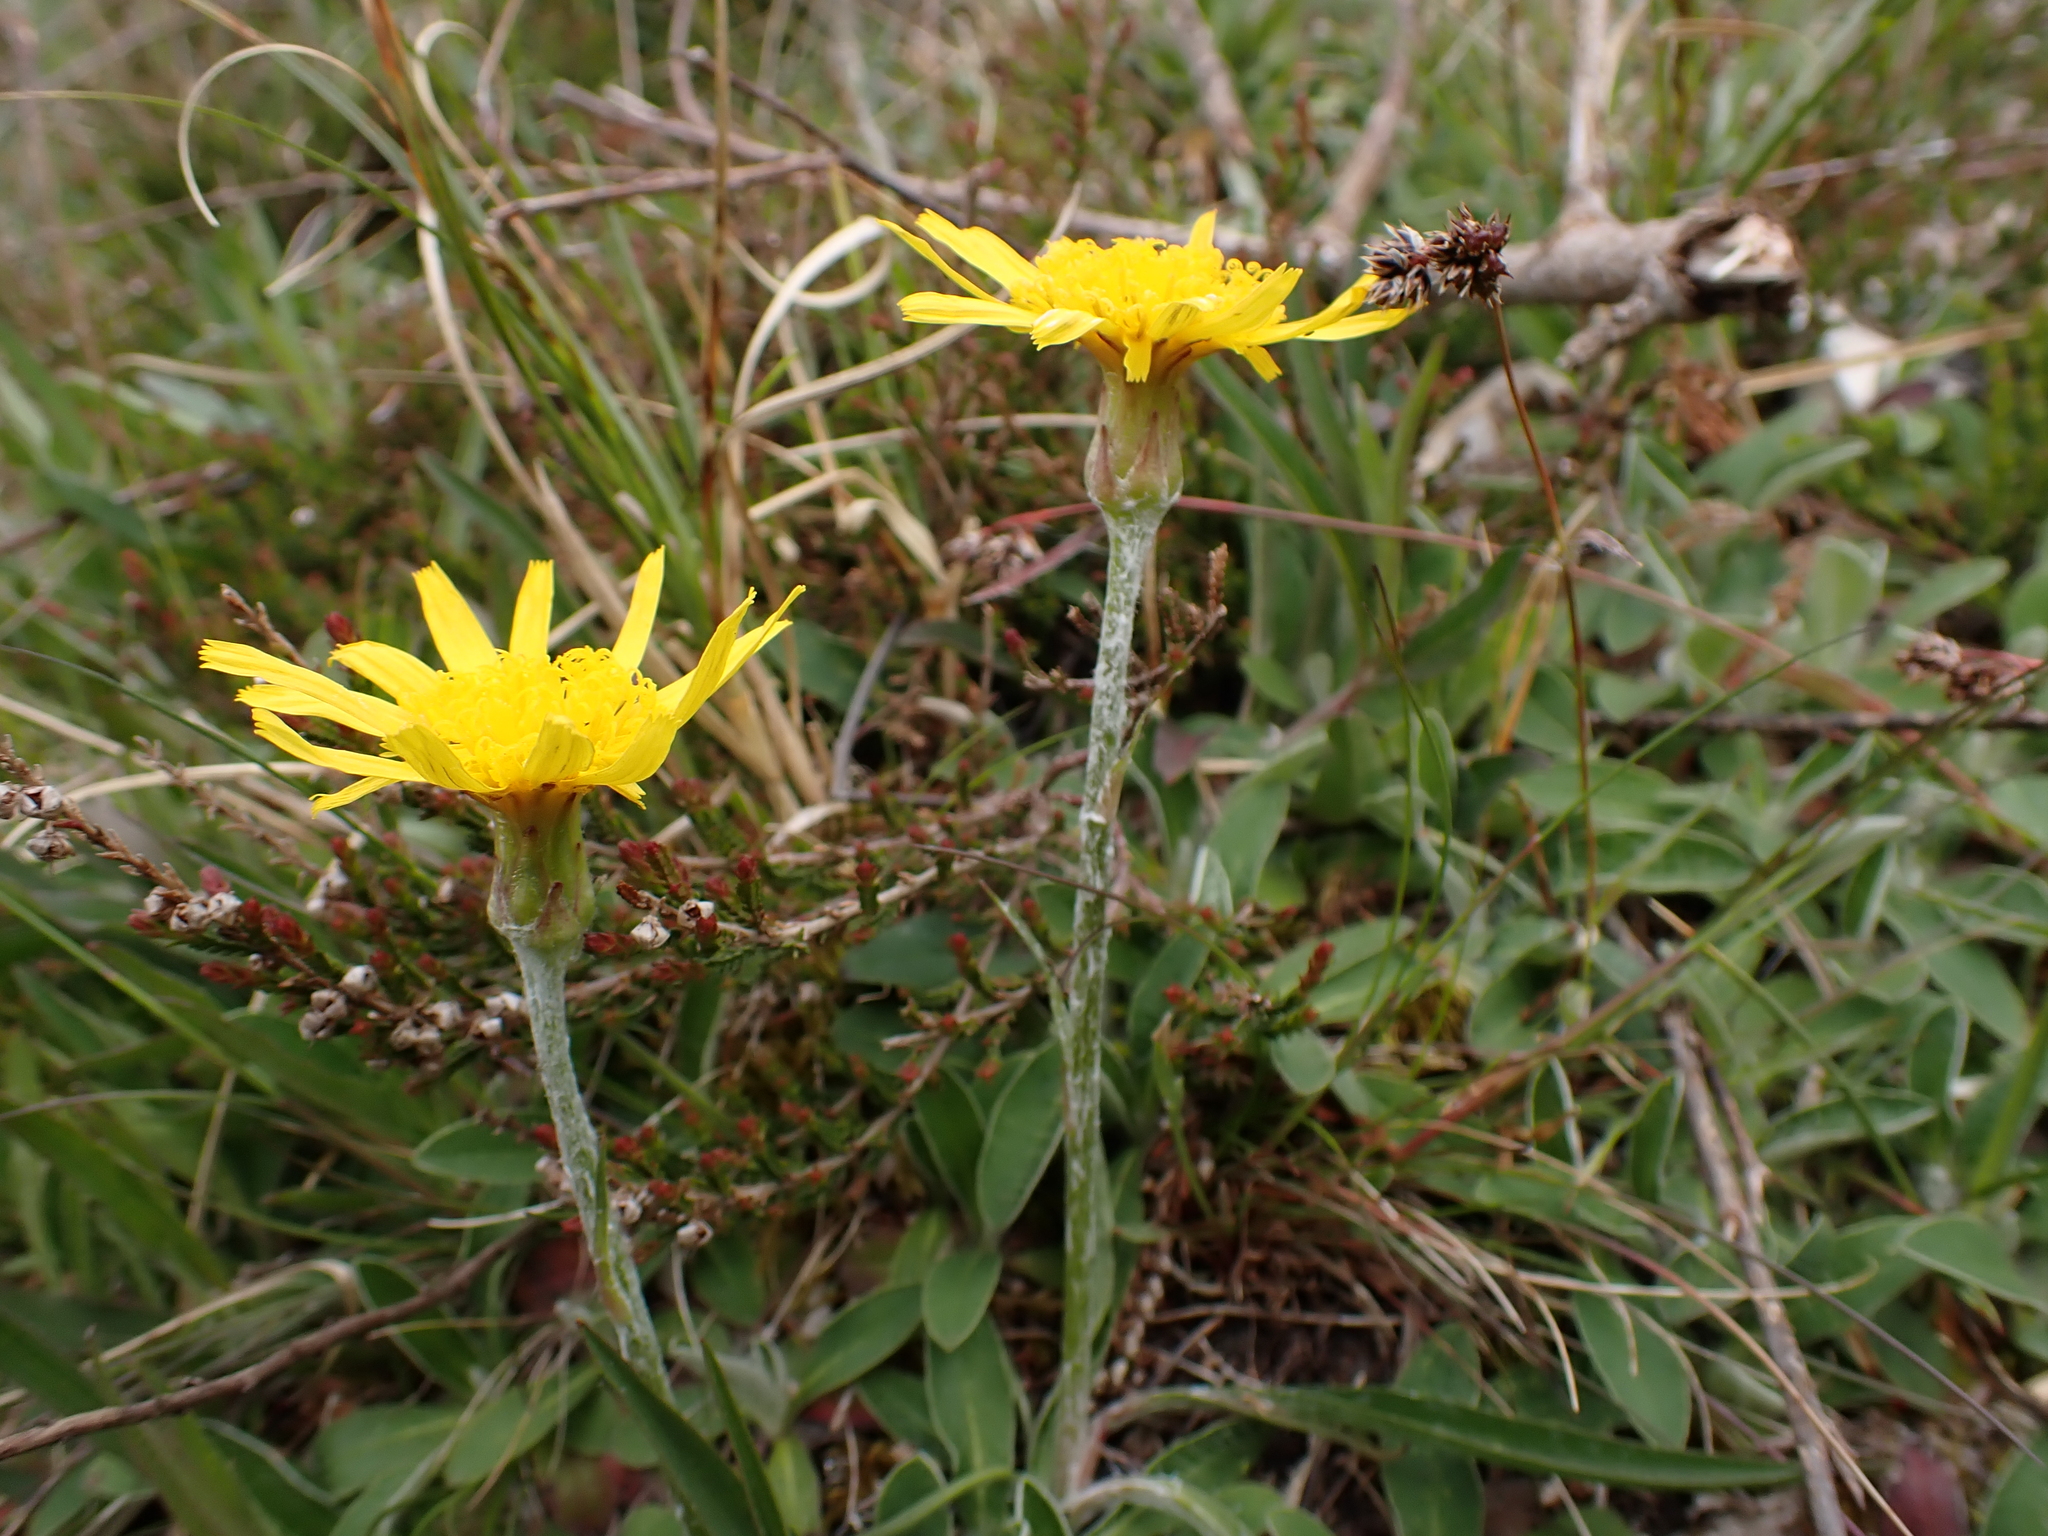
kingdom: Plantae
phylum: Tracheophyta
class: Magnoliopsida
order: Asterales
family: Asteraceae
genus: Scorzonera
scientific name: Scorzonera humilis
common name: Viper's-grass
